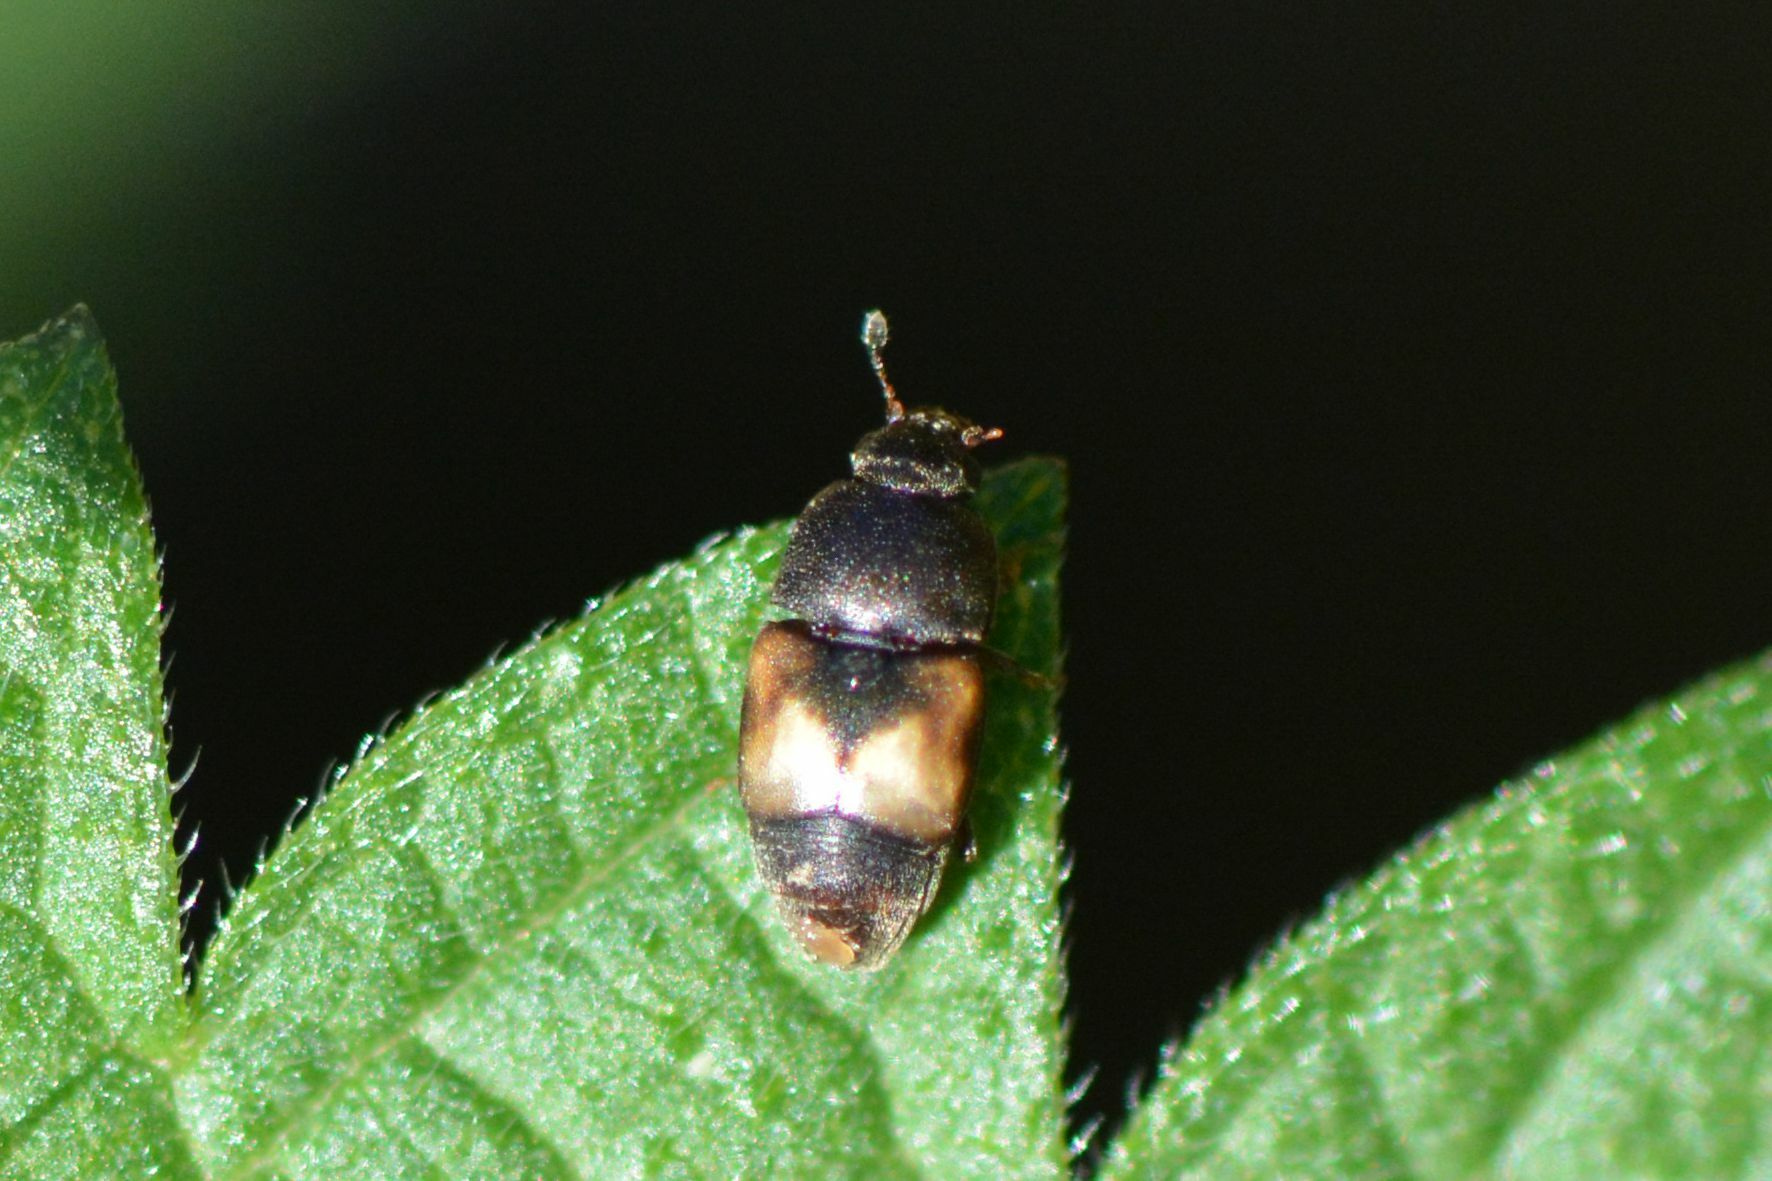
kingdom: Animalia
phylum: Arthropoda
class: Insecta
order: Coleoptera
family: Nitidulidae
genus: Carpophilus
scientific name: Carpophilus hemipterus
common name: Dried fruit beetle
